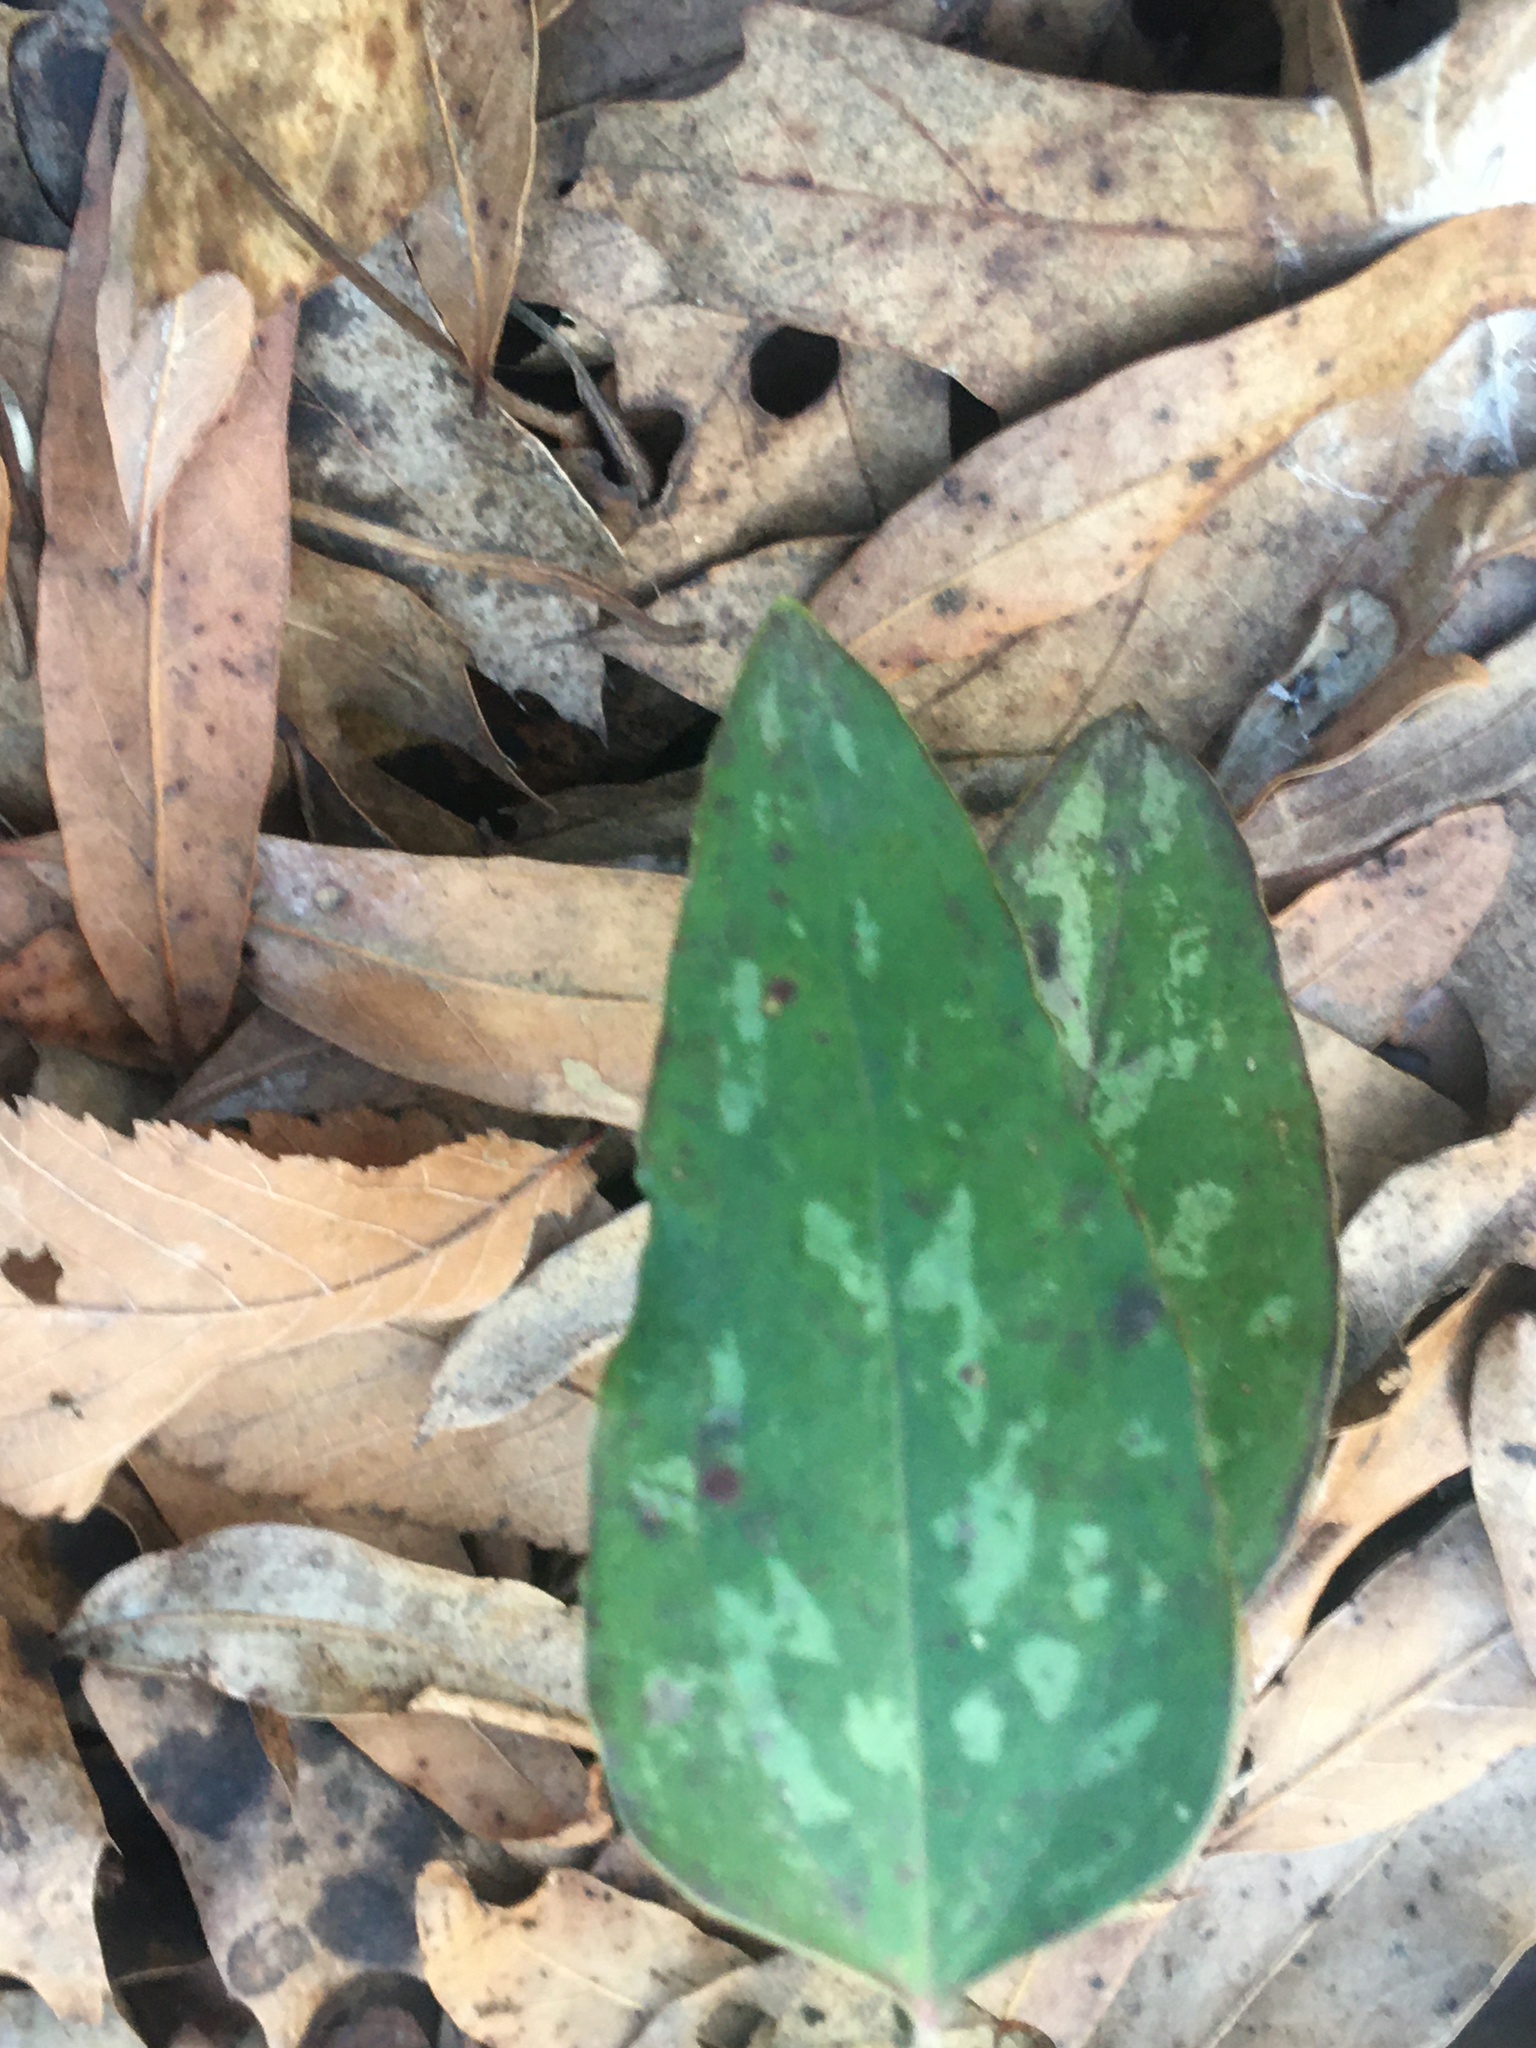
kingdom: Plantae
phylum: Tracheophyta
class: Liliopsida
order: Liliales
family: Smilacaceae
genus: Smilax
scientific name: Smilax glauca
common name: Cat greenbrier
